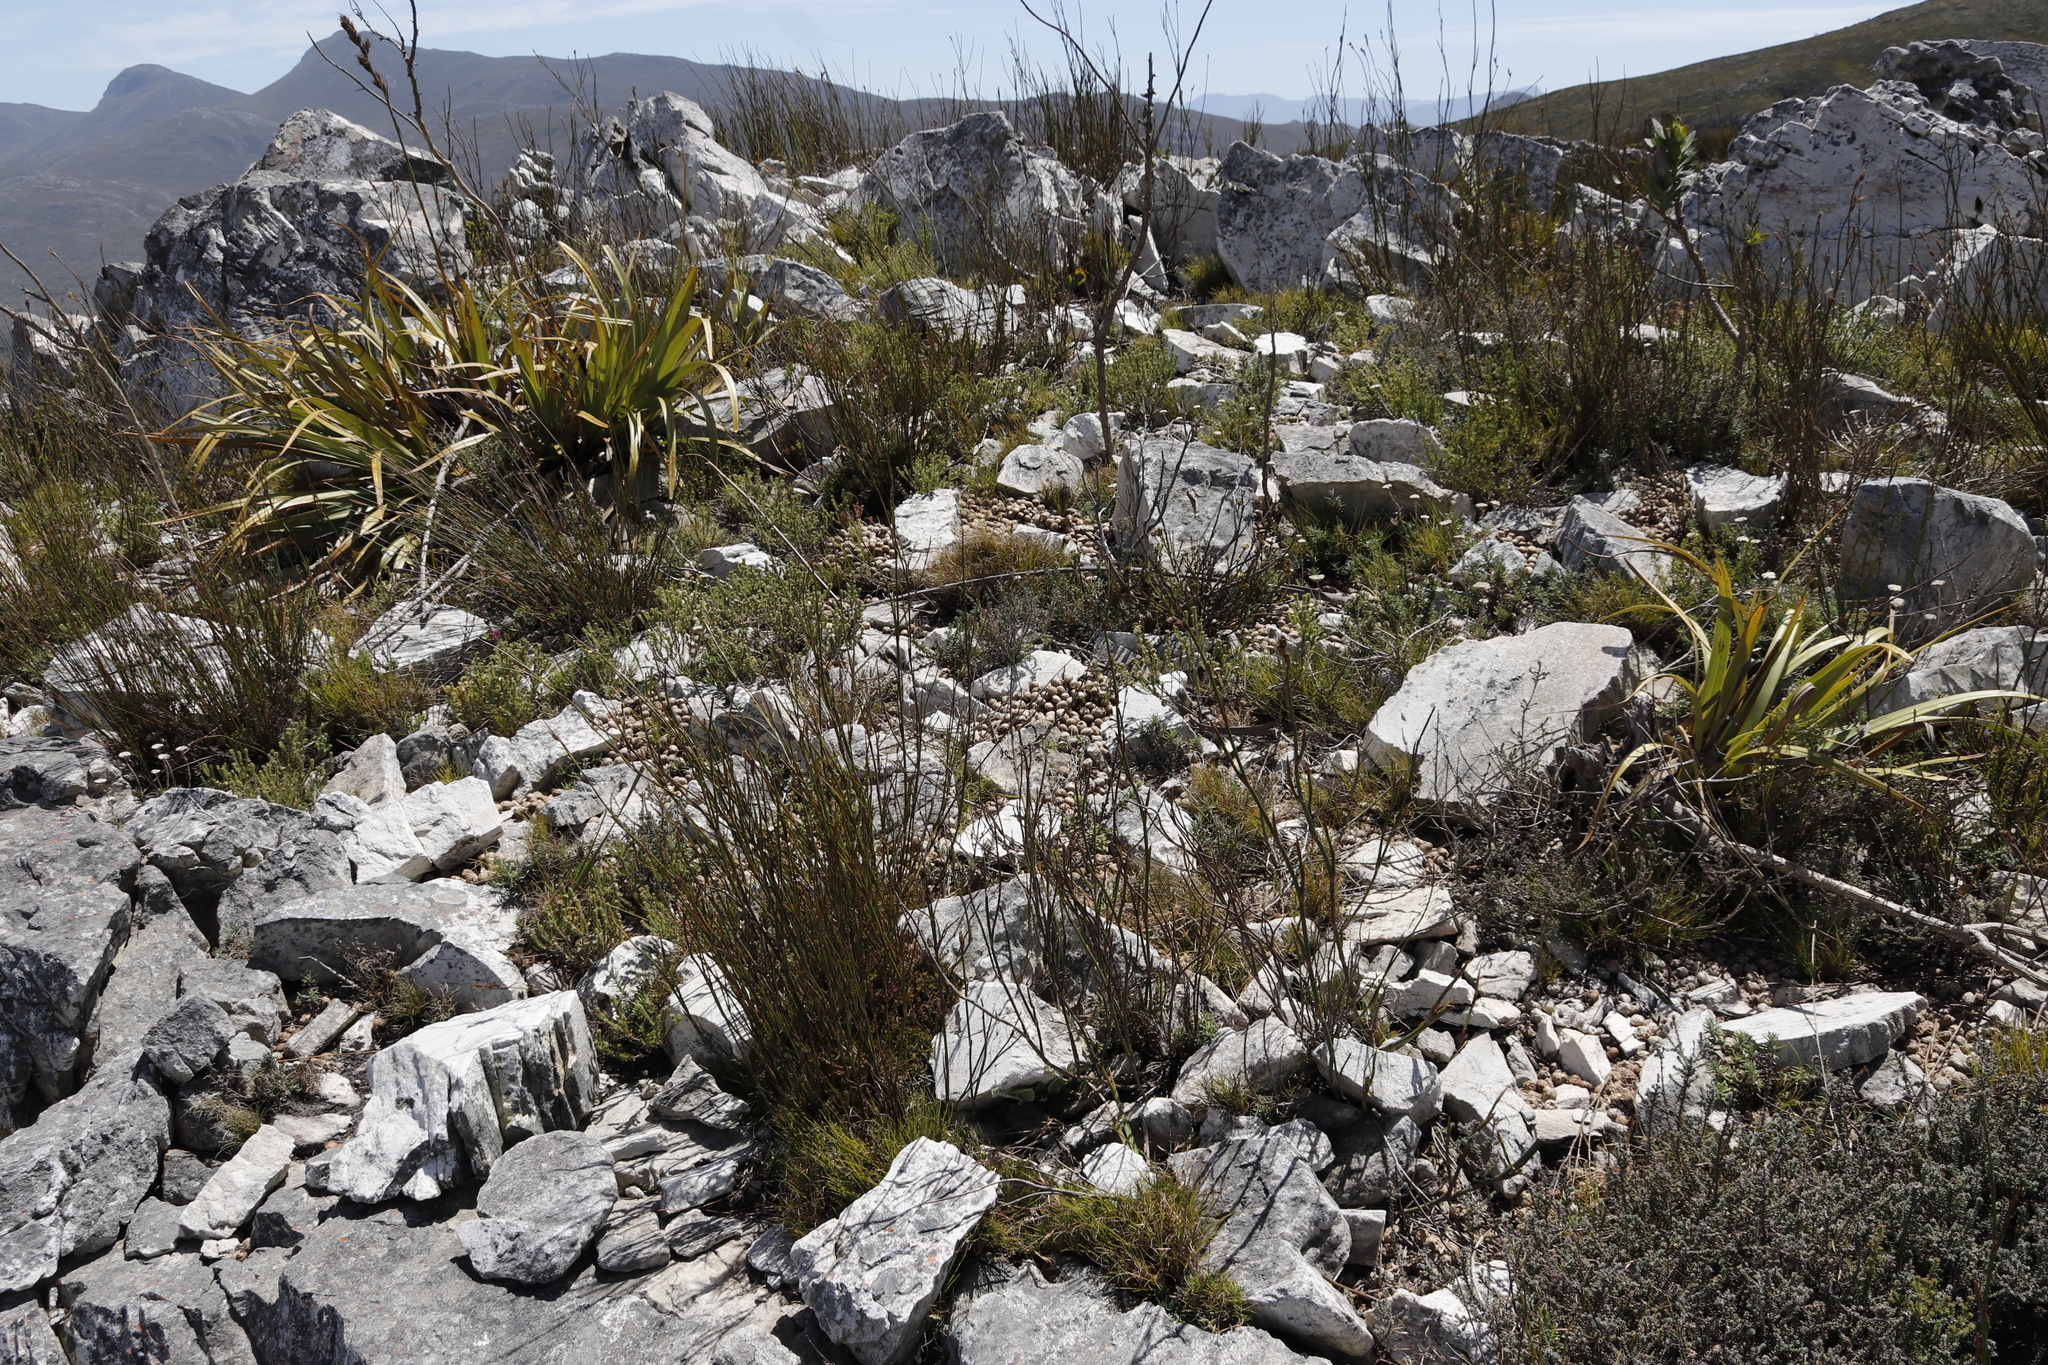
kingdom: Plantae
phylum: Tracheophyta
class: Liliopsida
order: Poales
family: Cyperaceae
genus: Tetraria
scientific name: Tetraria thermalis
